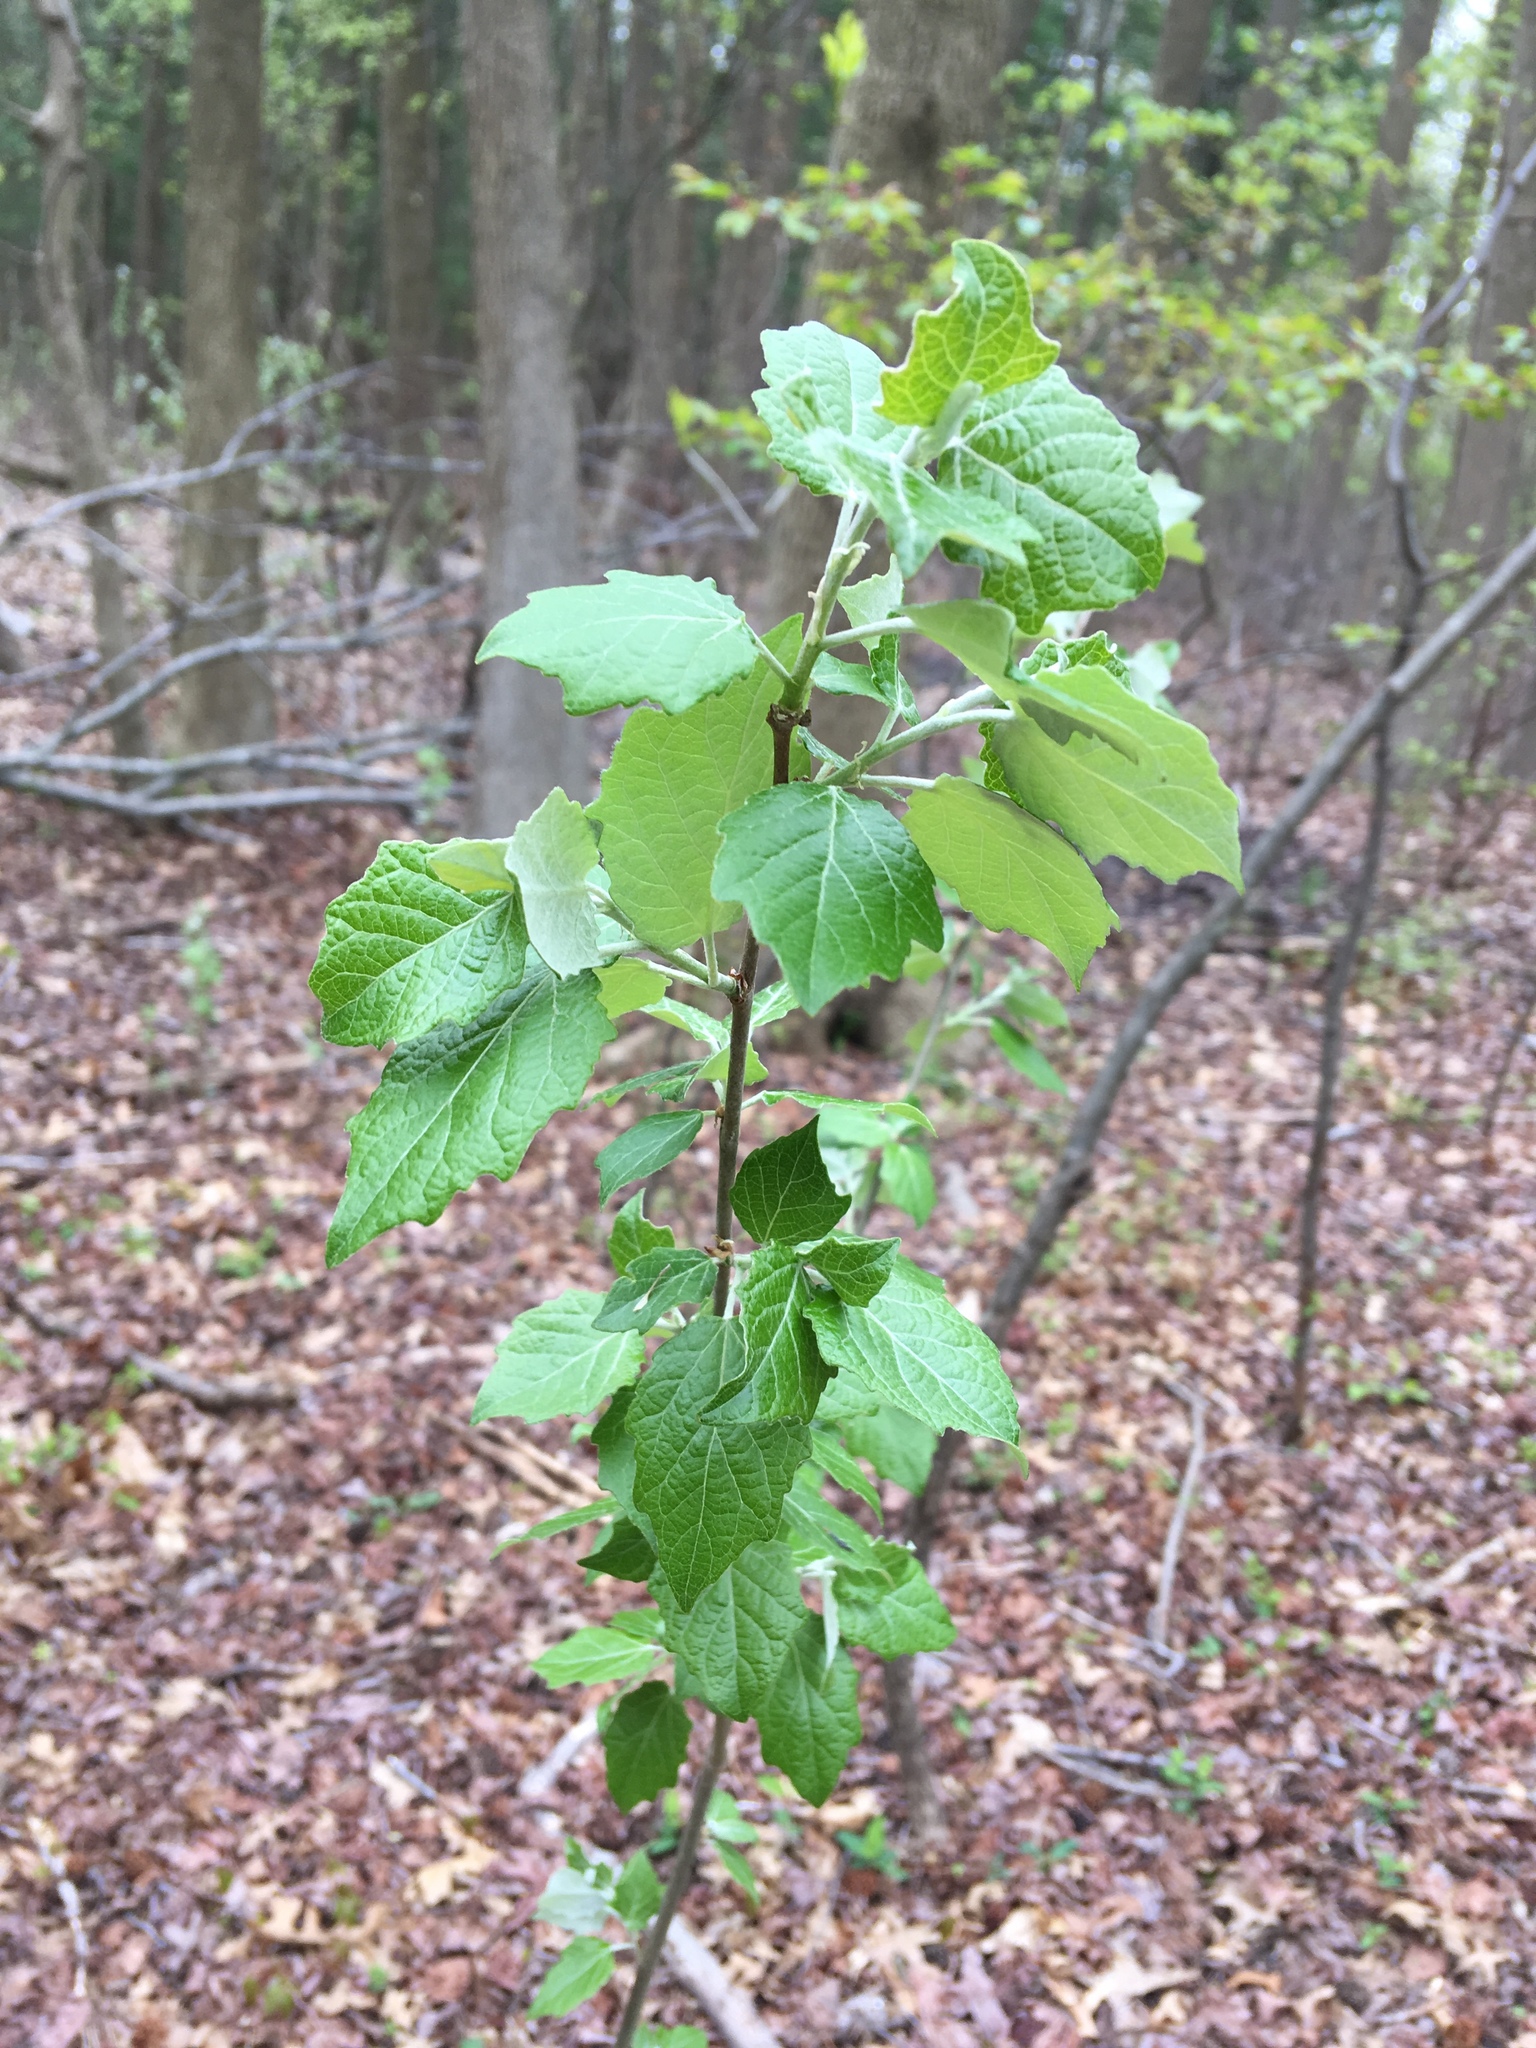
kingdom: Plantae
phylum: Tracheophyta
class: Magnoliopsida
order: Malpighiales
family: Salicaceae
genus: Populus
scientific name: Populus grandidentata
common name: Bigtooth aspen
